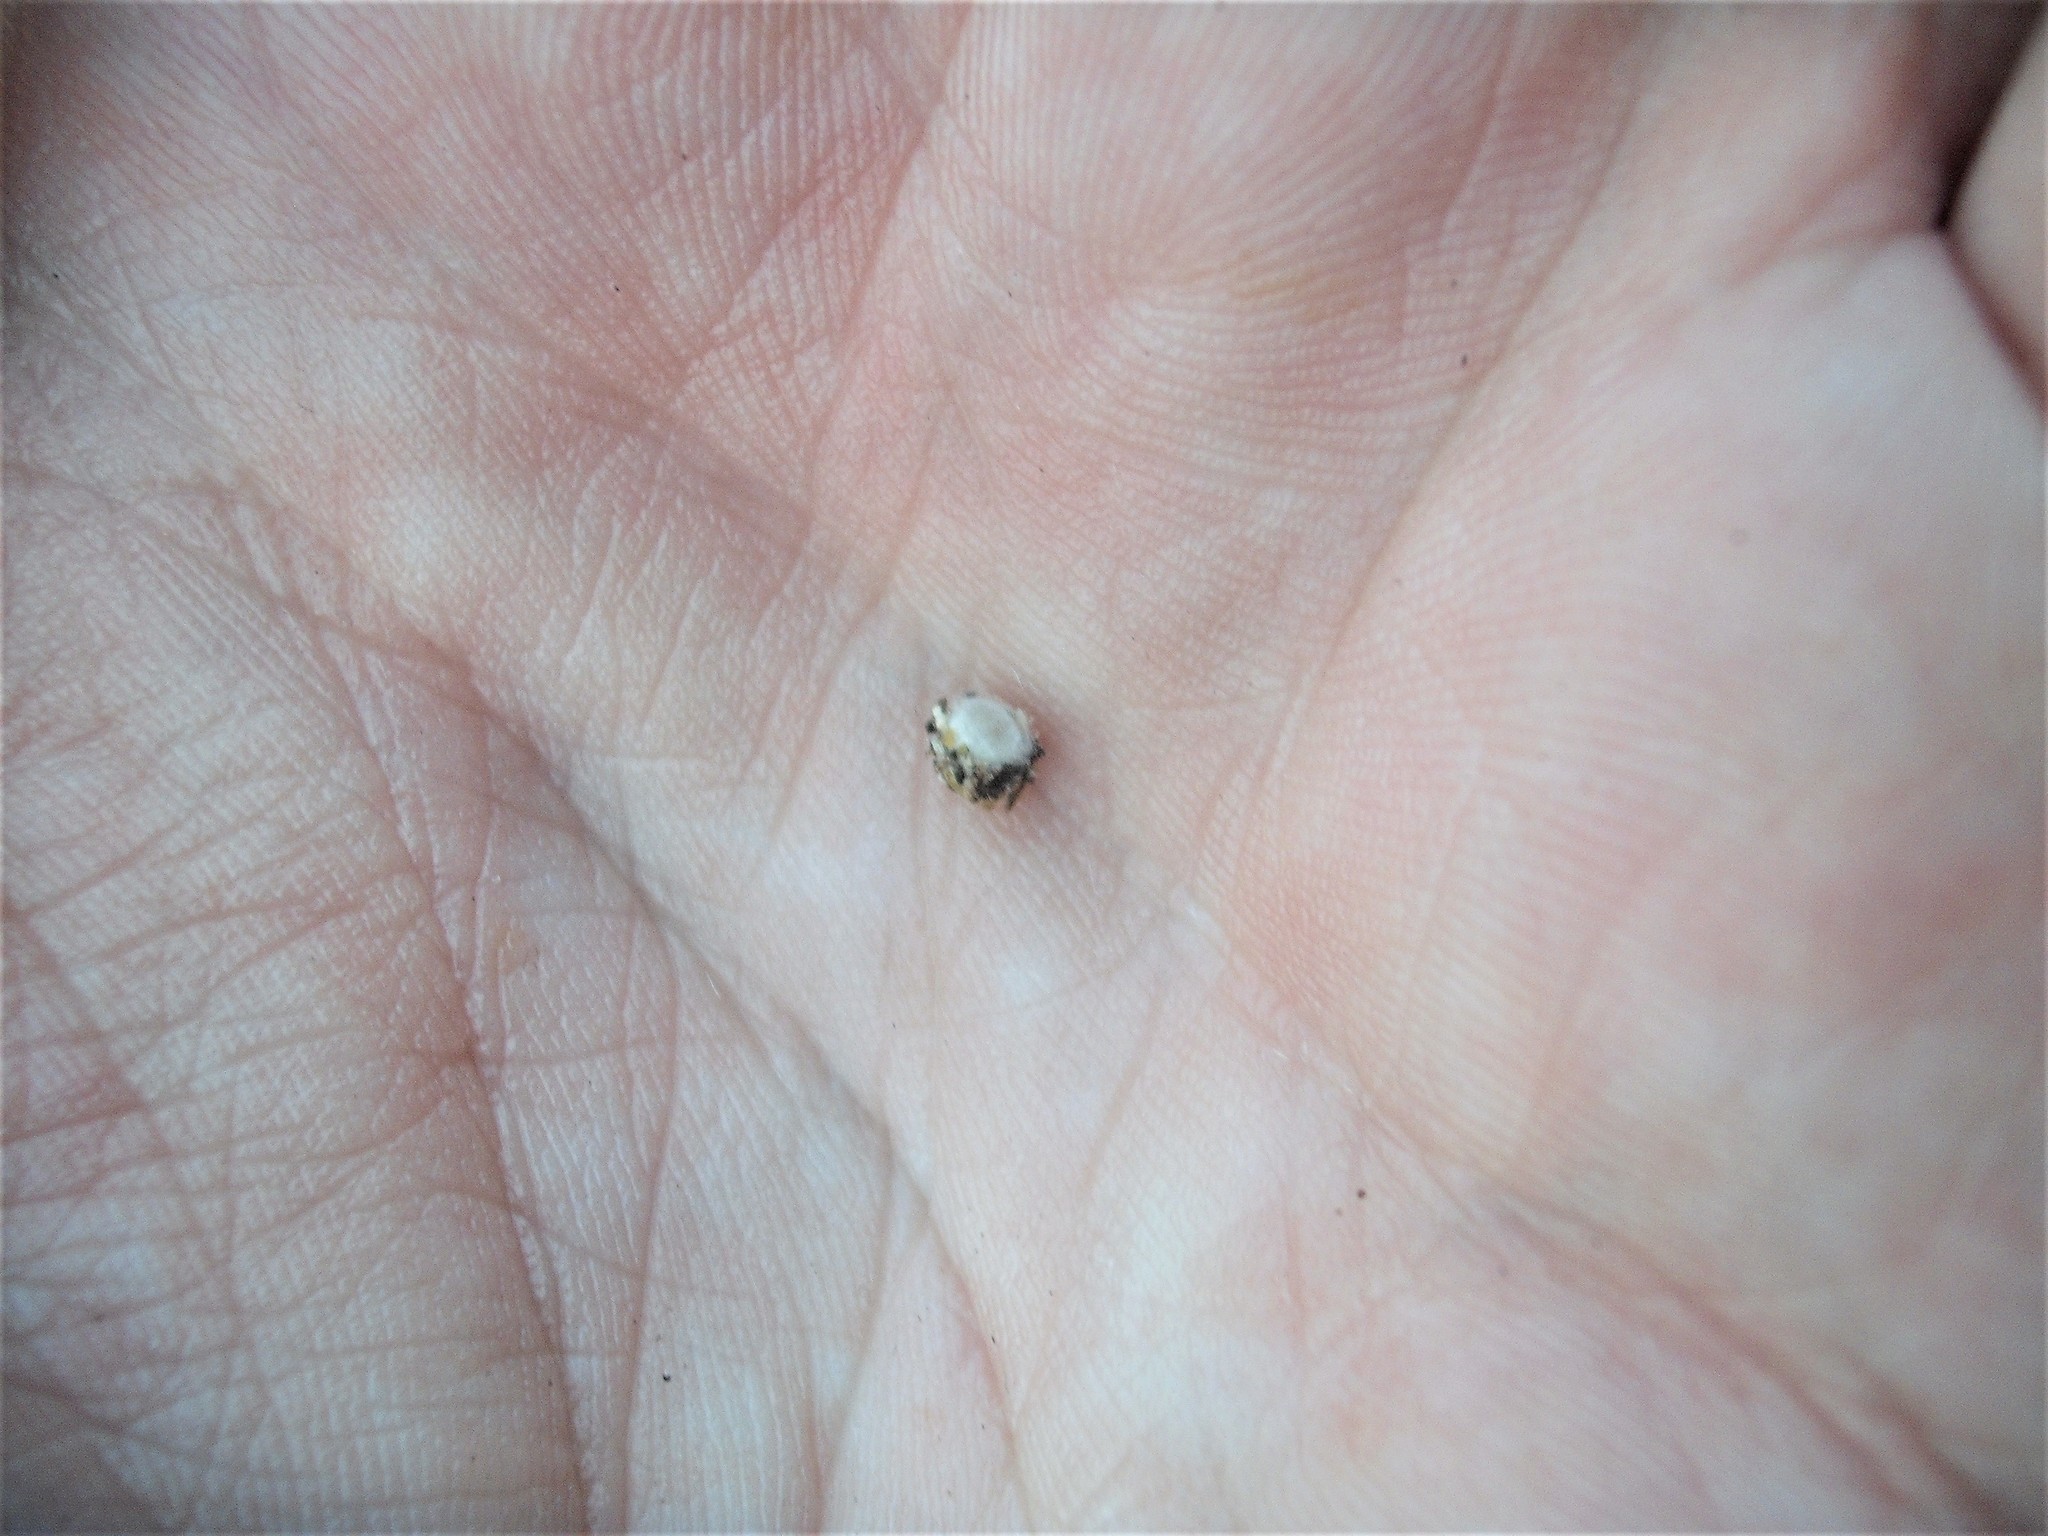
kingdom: Animalia
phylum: Arthropoda
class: Insecta
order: Neuroptera
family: Chrysopidae
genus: Mallada
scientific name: Mallada basalis
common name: Green lacewing
